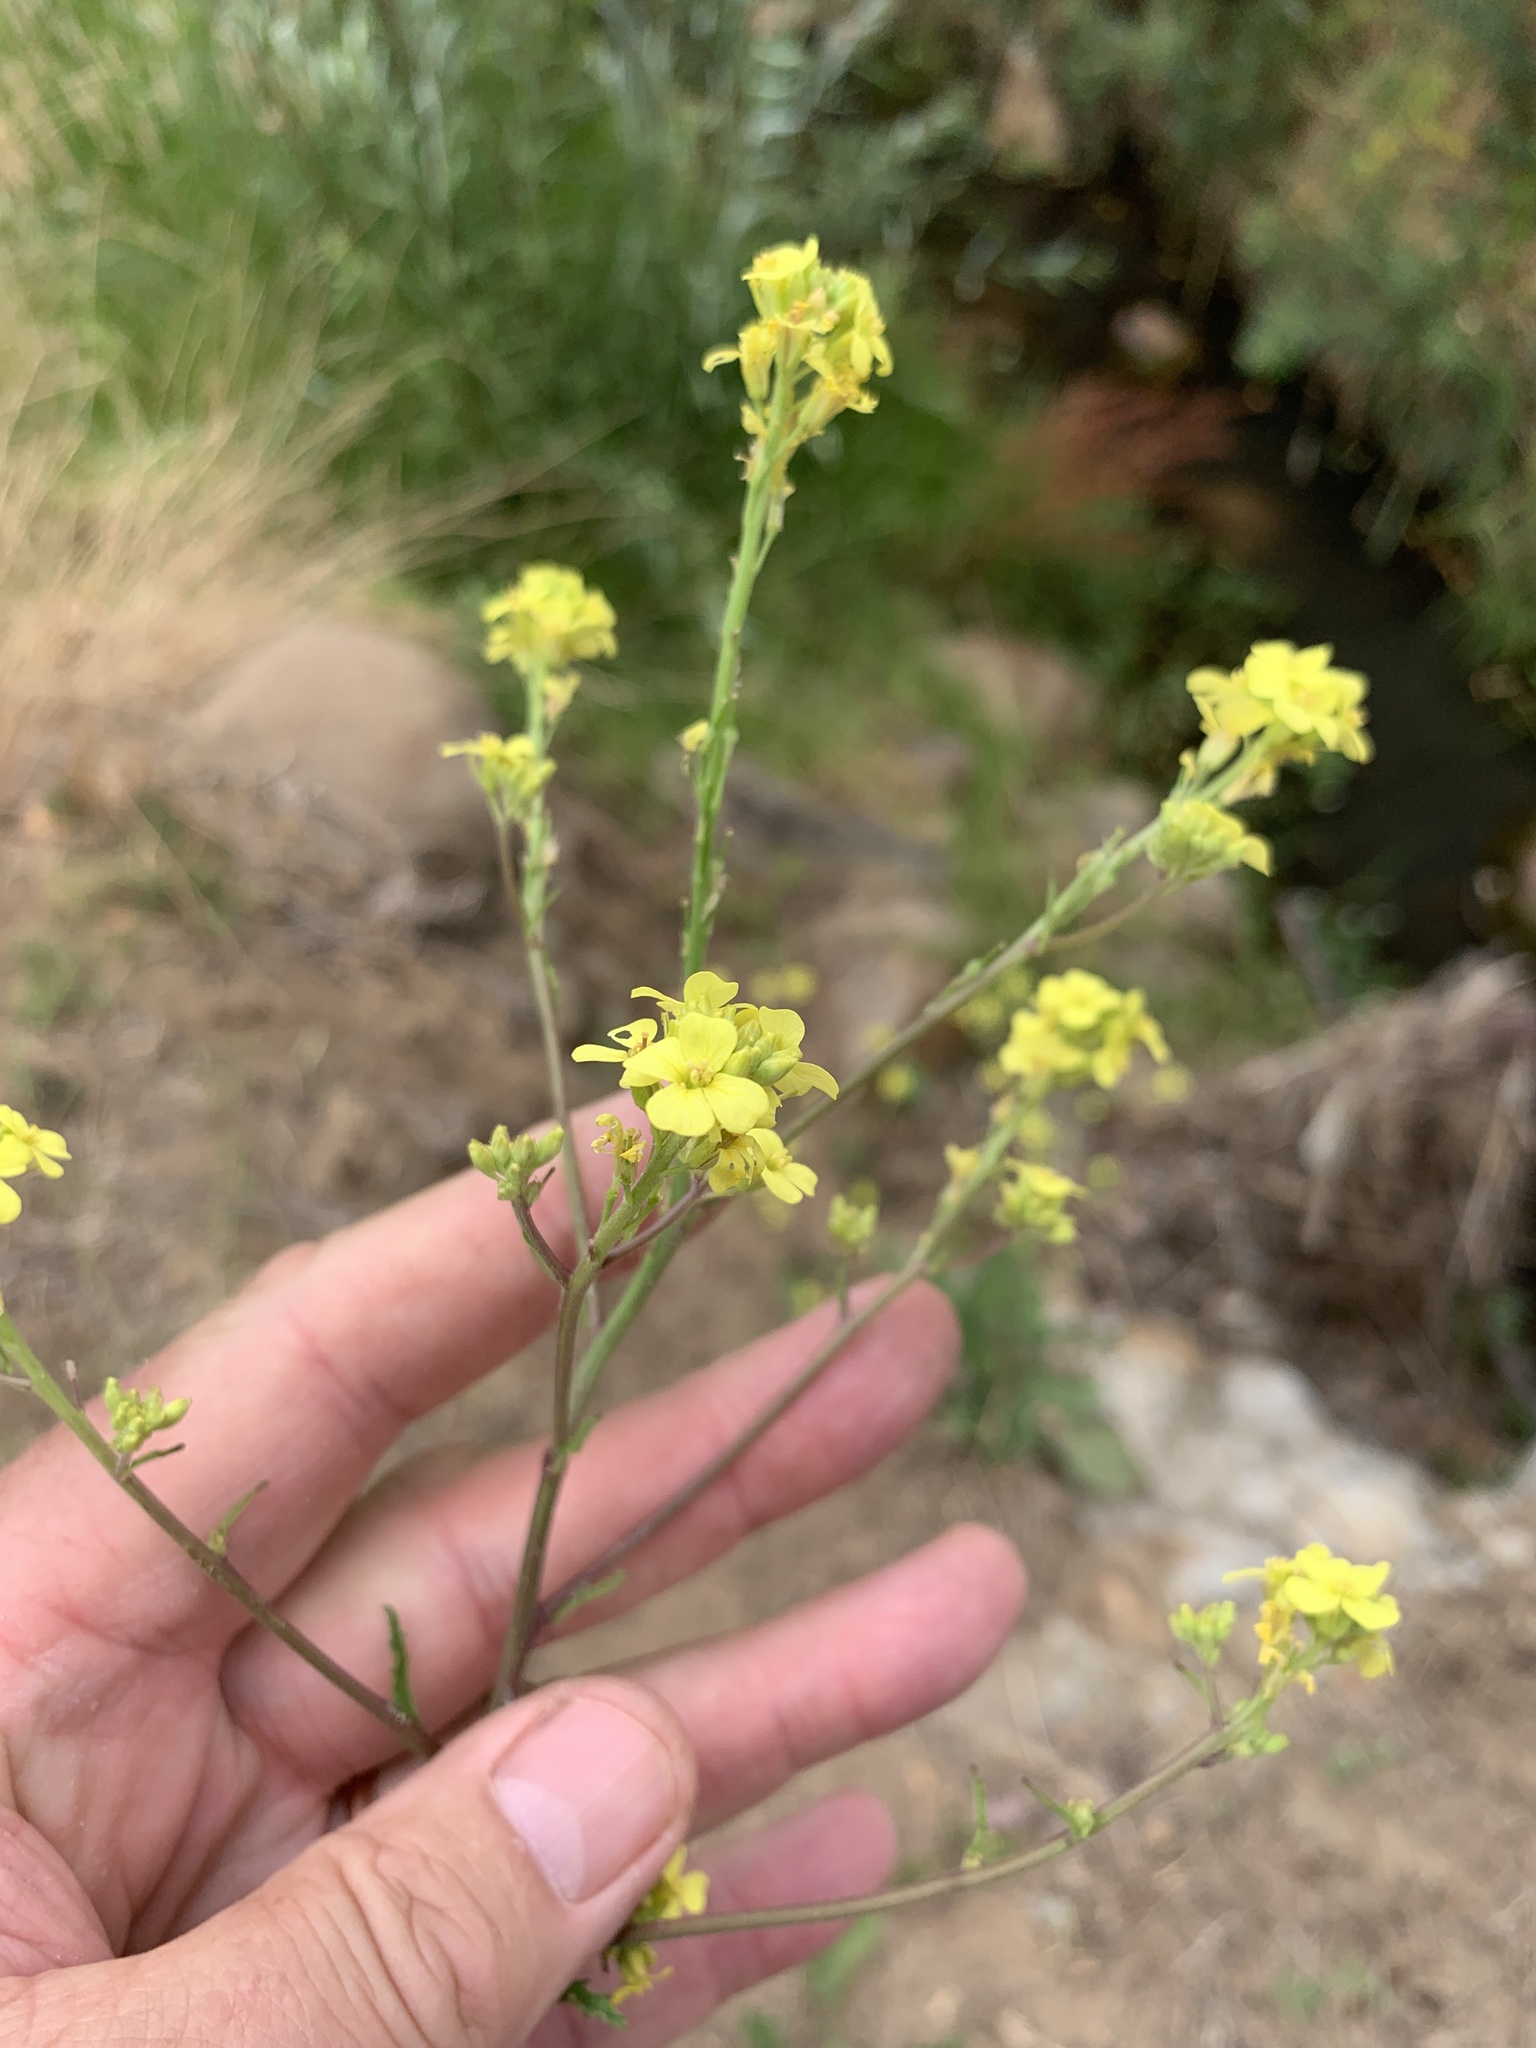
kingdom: Plantae
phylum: Tracheophyta
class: Magnoliopsida
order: Brassicales
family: Brassicaceae
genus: Rapistrum
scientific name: Rapistrum rugosum
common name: Annual bastardcabbage
